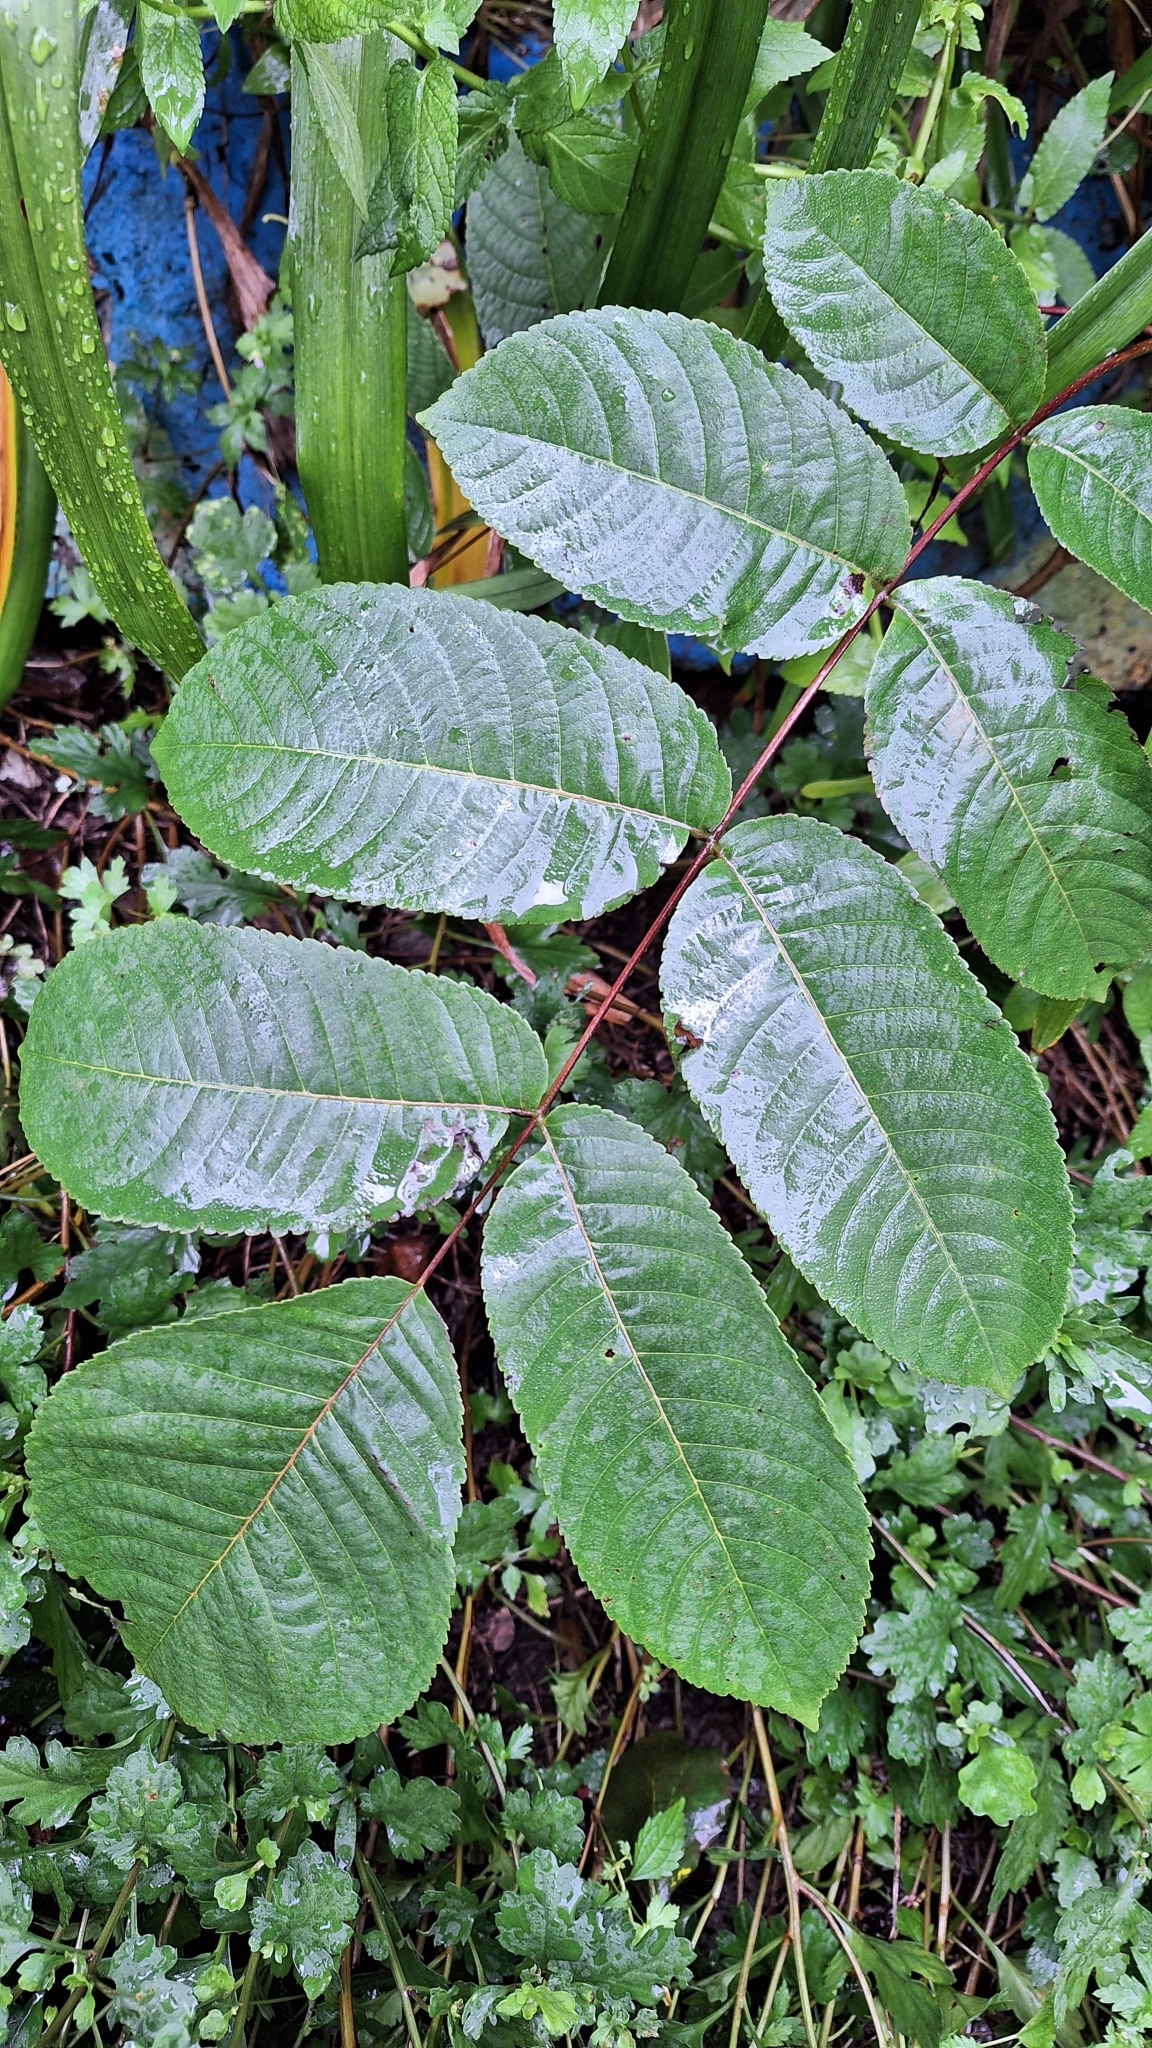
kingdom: Plantae
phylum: Tracheophyta
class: Magnoliopsida
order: Fagales
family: Juglandaceae
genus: Juglans
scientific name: Juglans mandshurica
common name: Manchurian walnut
